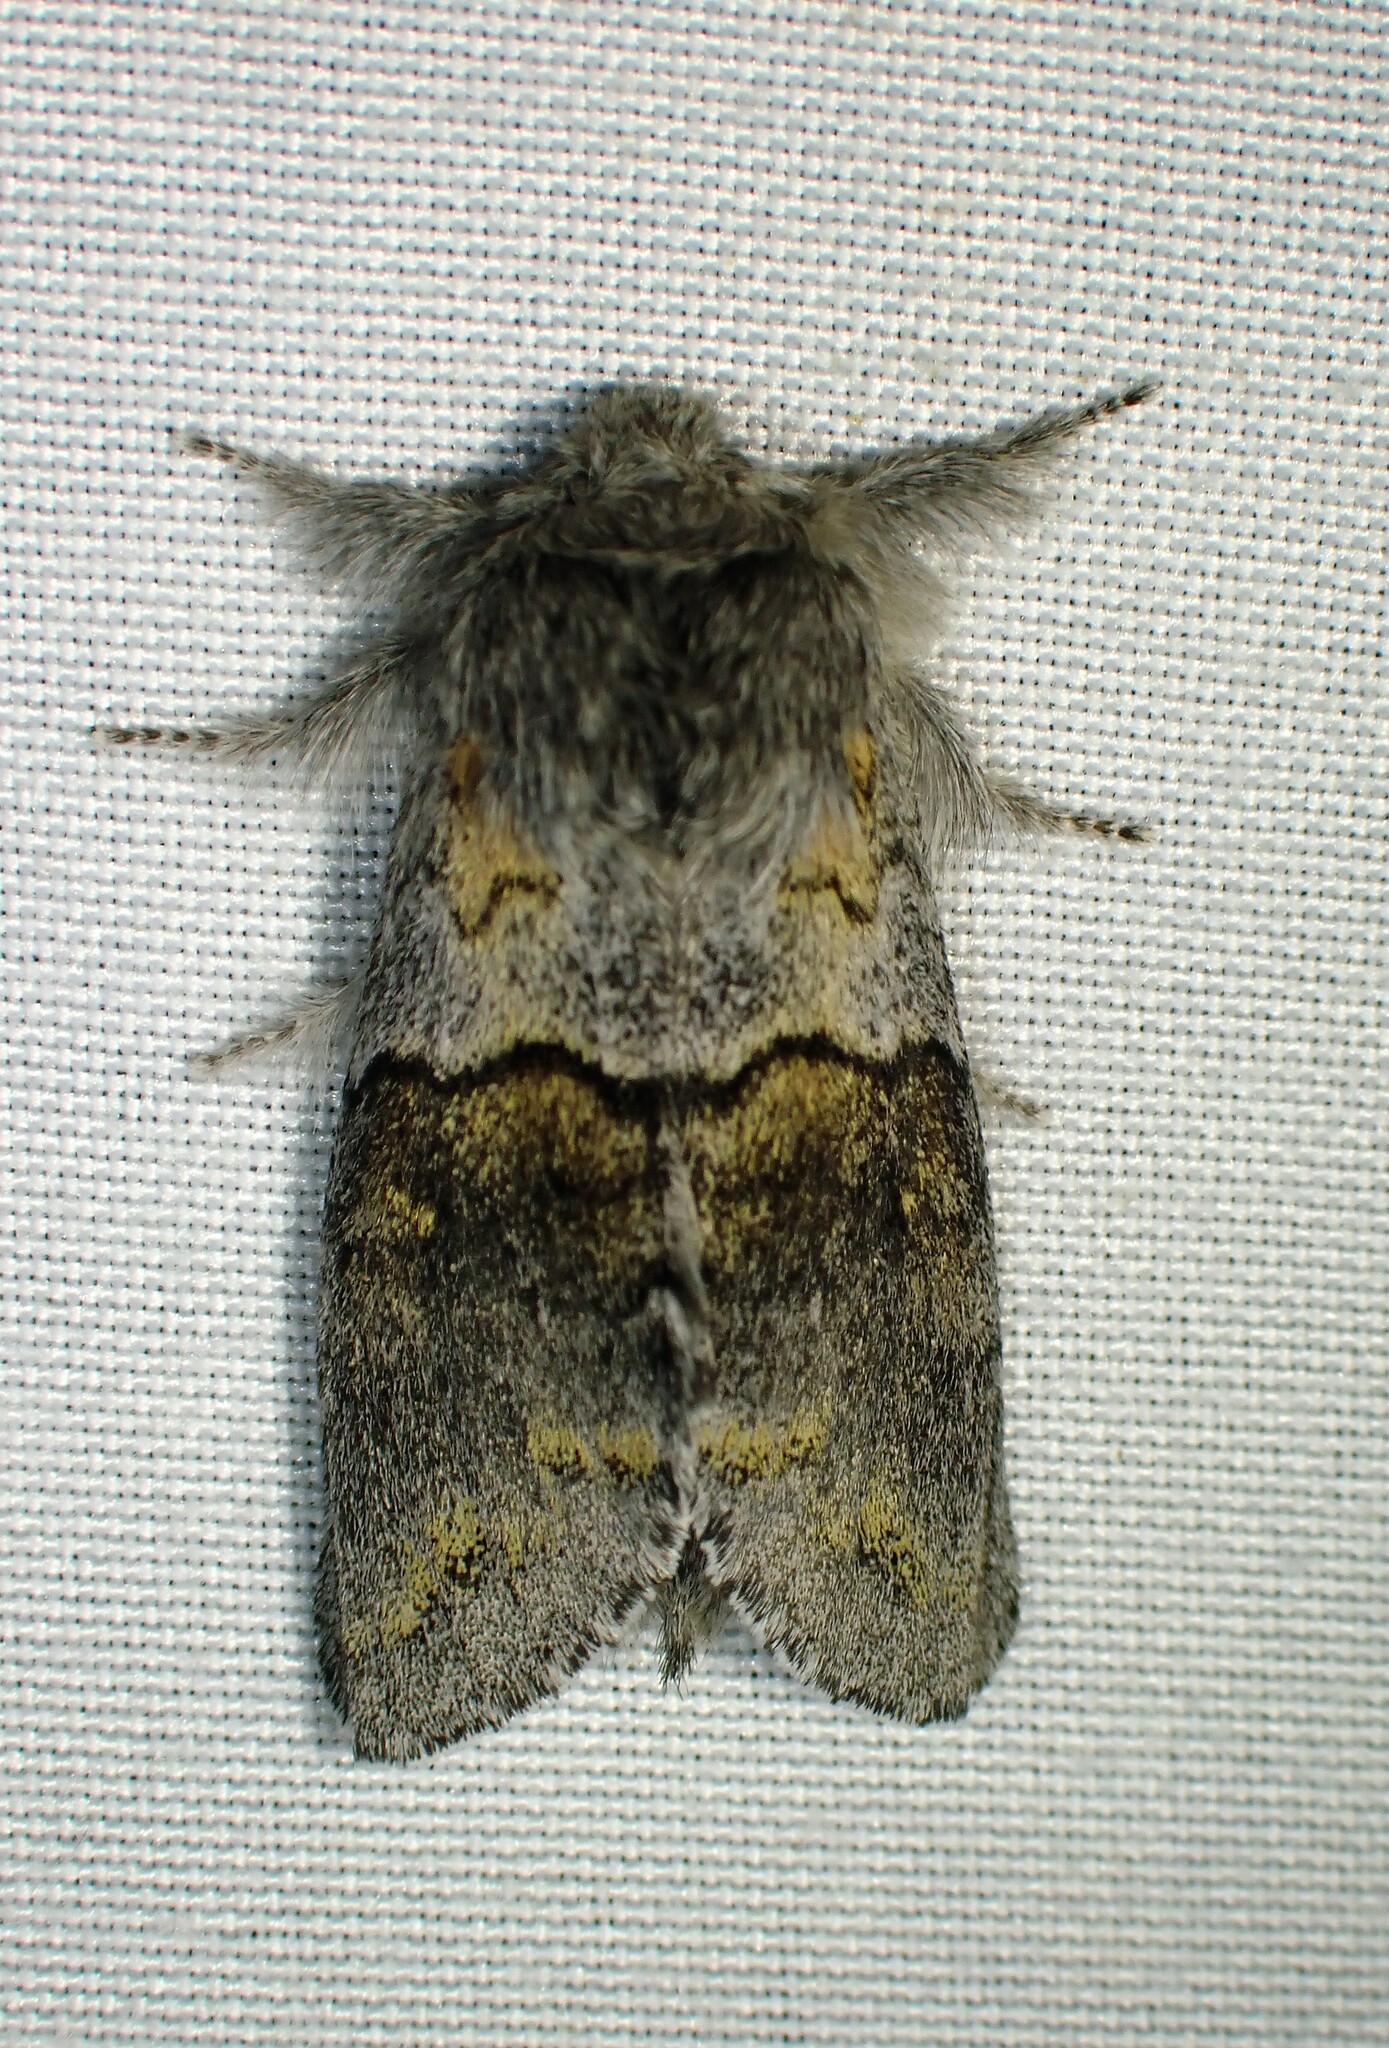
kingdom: Animalia
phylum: Arthropoda
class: Insecta
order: Lepidoptera
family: Notodontidae
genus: Gluphisia
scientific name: Gluphisia lintneri
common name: Lintner's gluphisia moth
